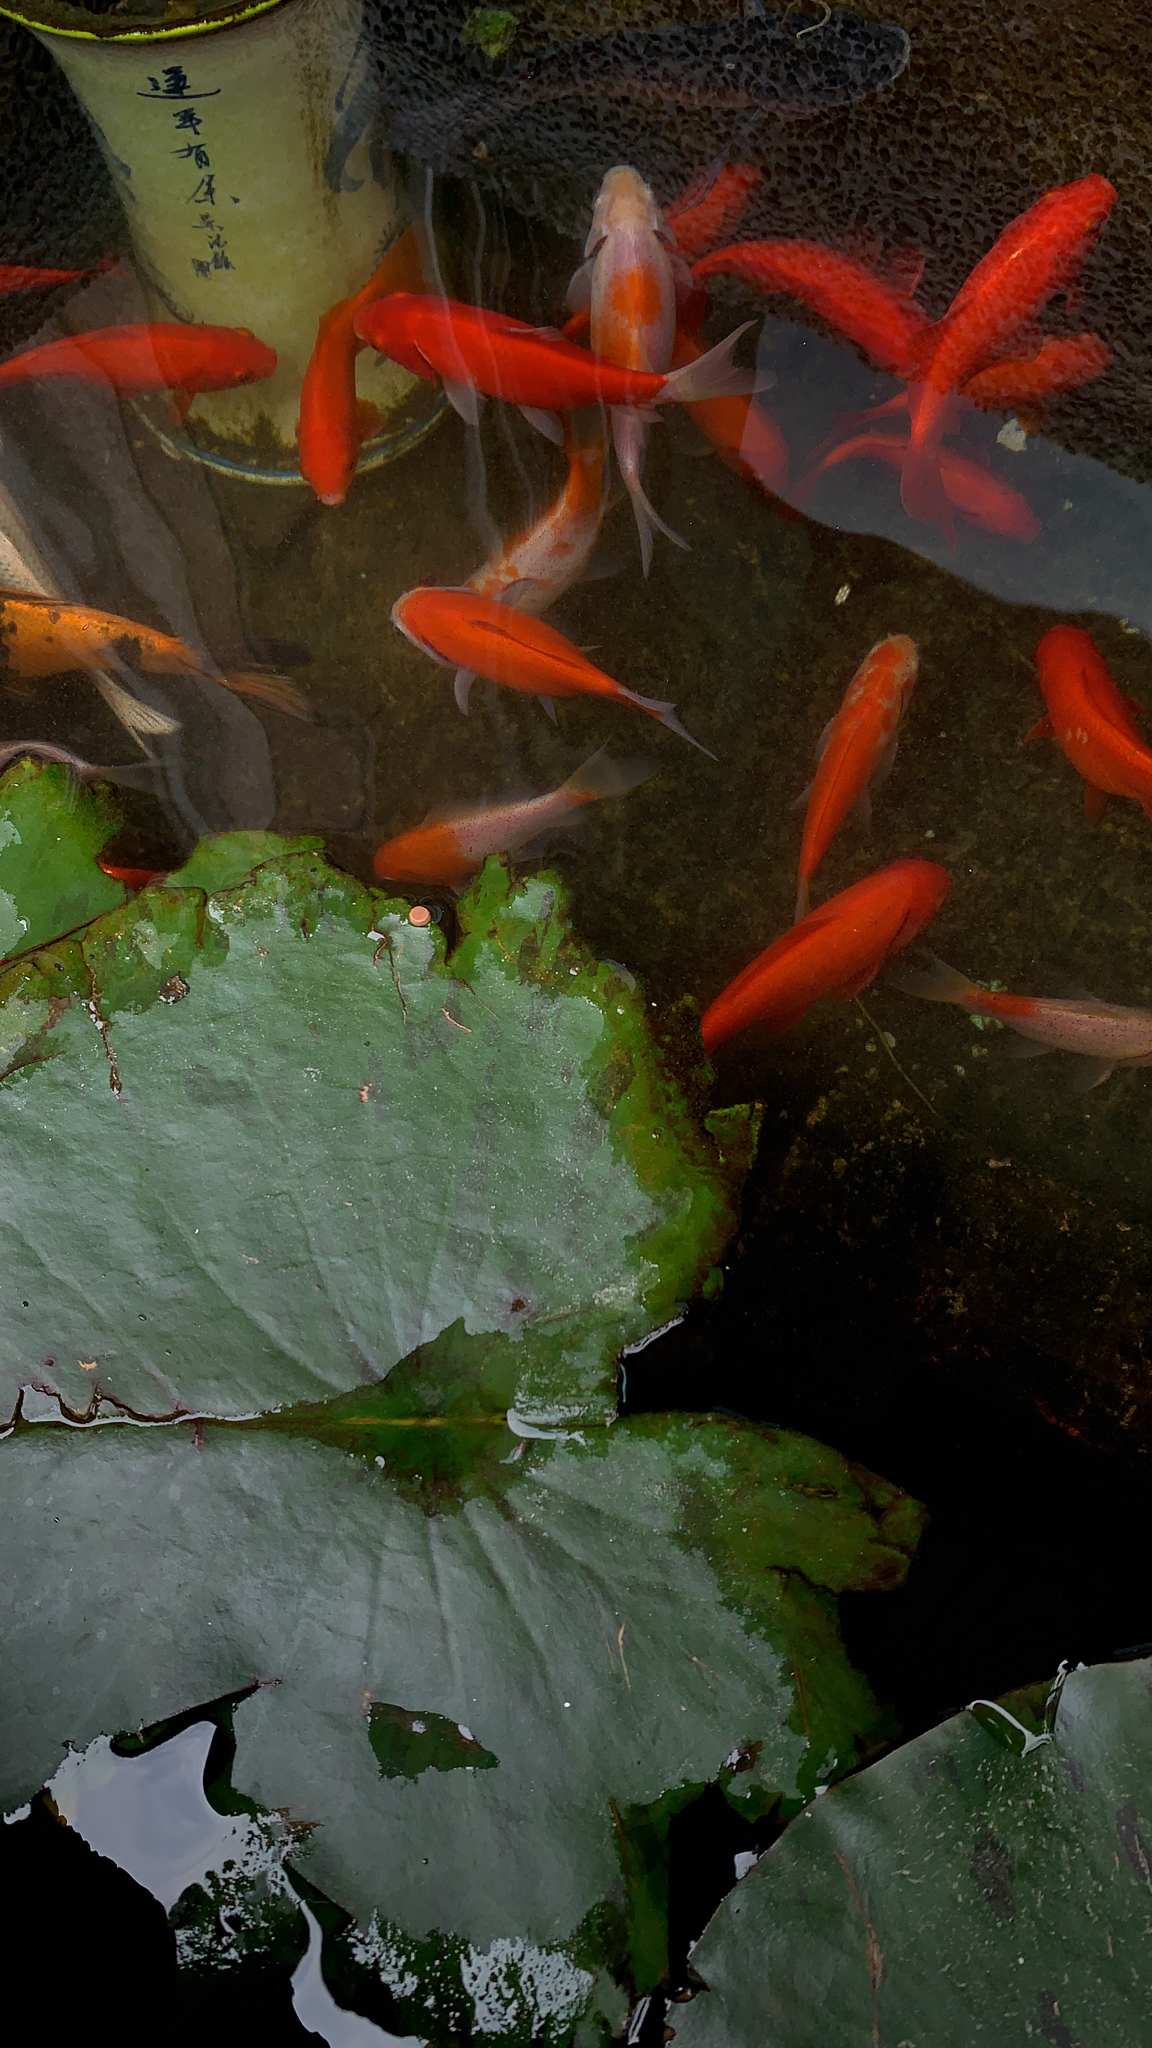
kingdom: Animalia
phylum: Chordata
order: Cypriniformes
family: Cyprinidae
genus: Carassius
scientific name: Carassius auratus
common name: Goldfish
